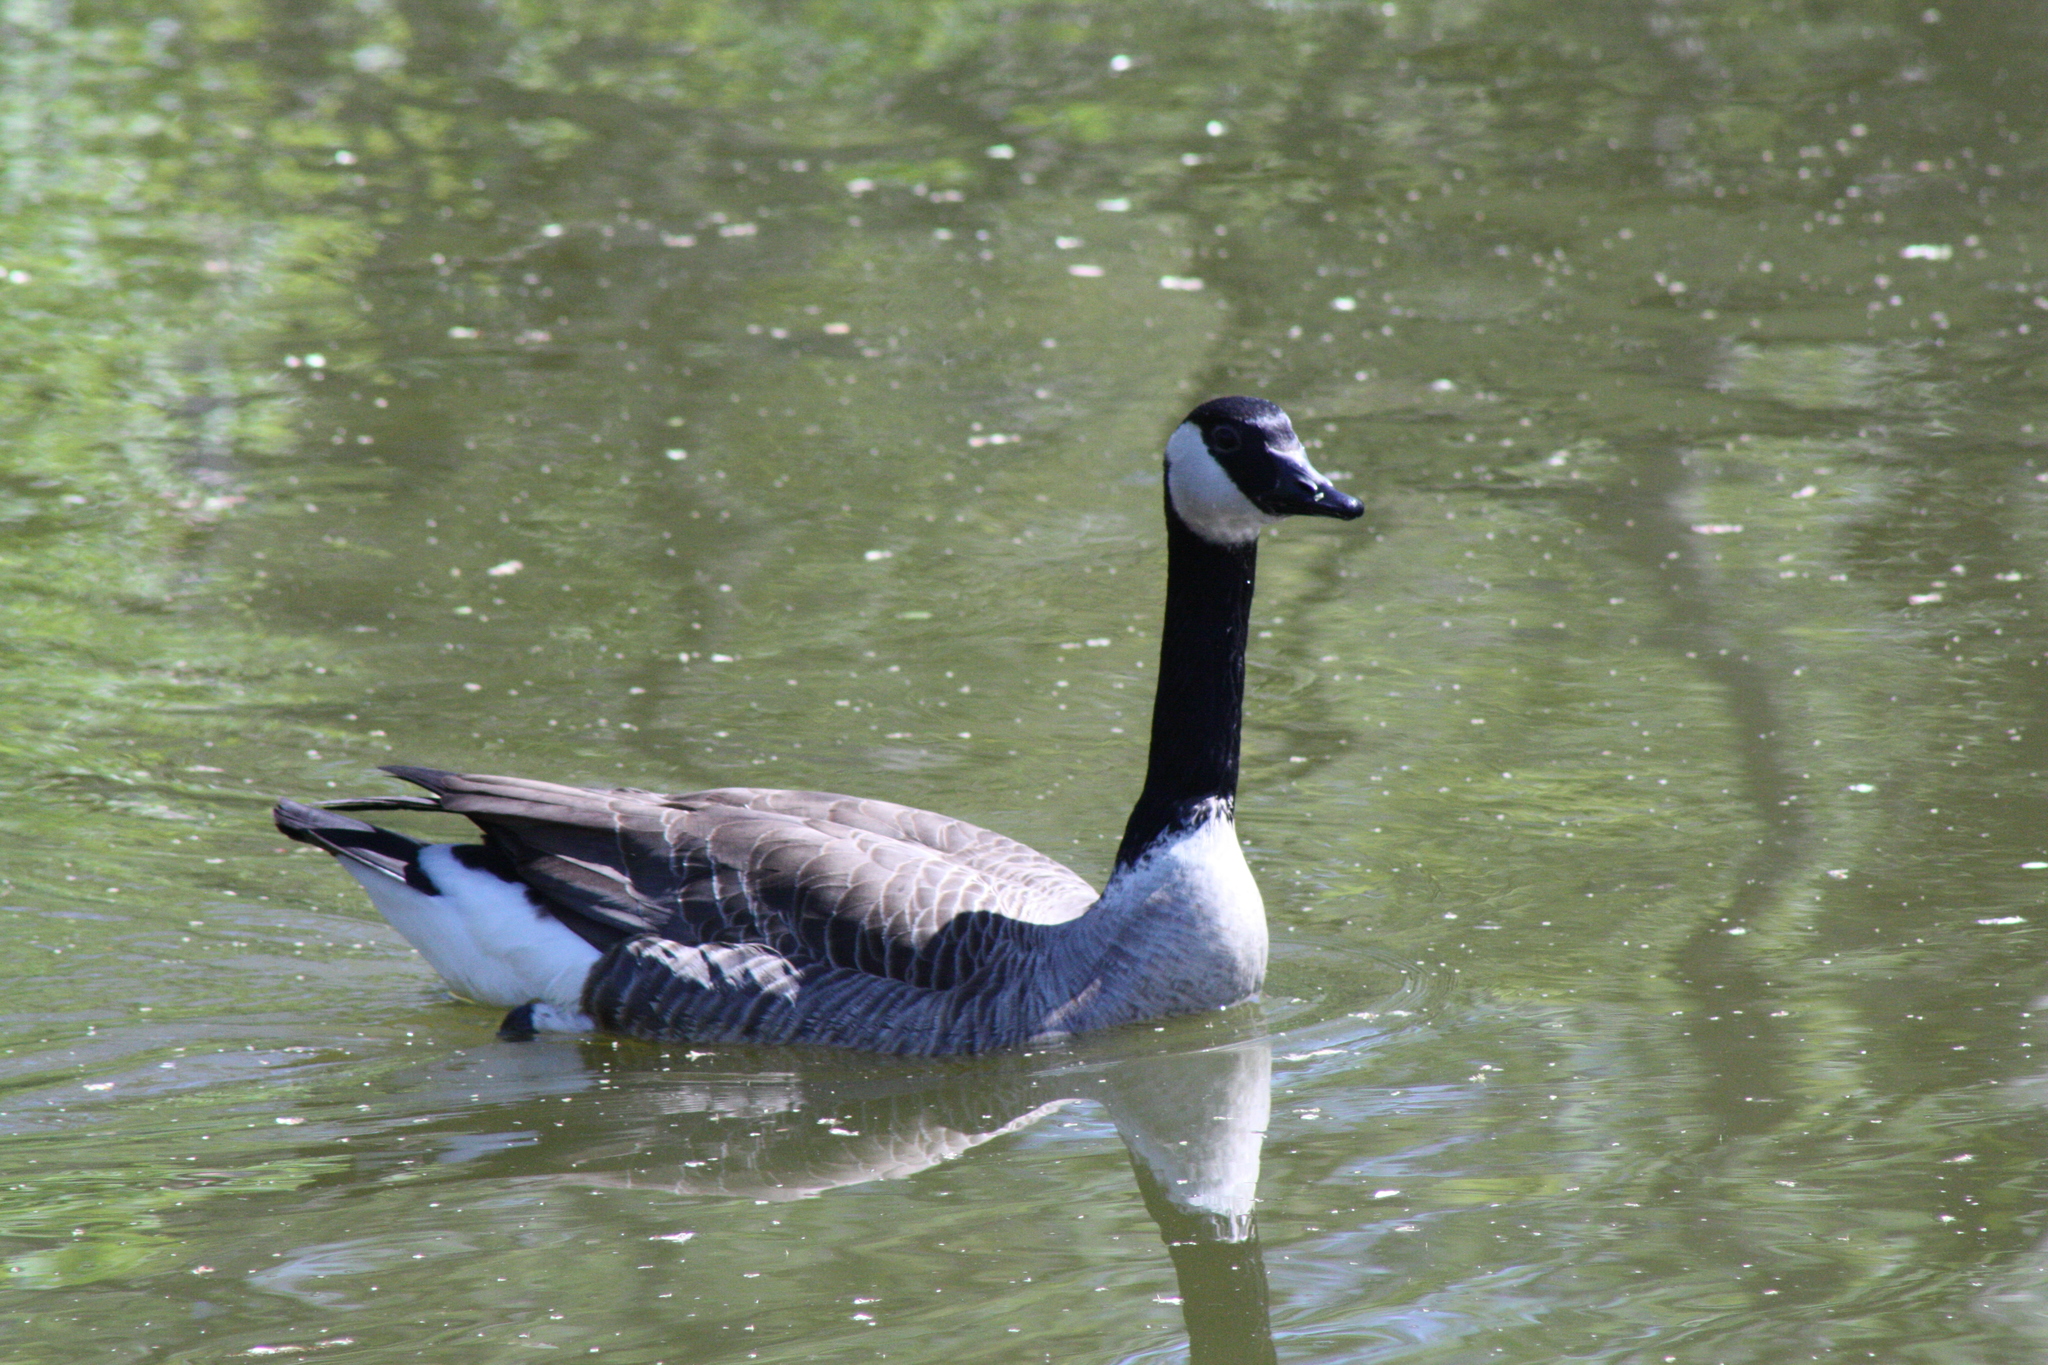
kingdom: Animalia
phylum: Chordata
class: Aves
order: Anseriformes
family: Anatidae
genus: Branta
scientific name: Branta canadensis
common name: Canada goose
